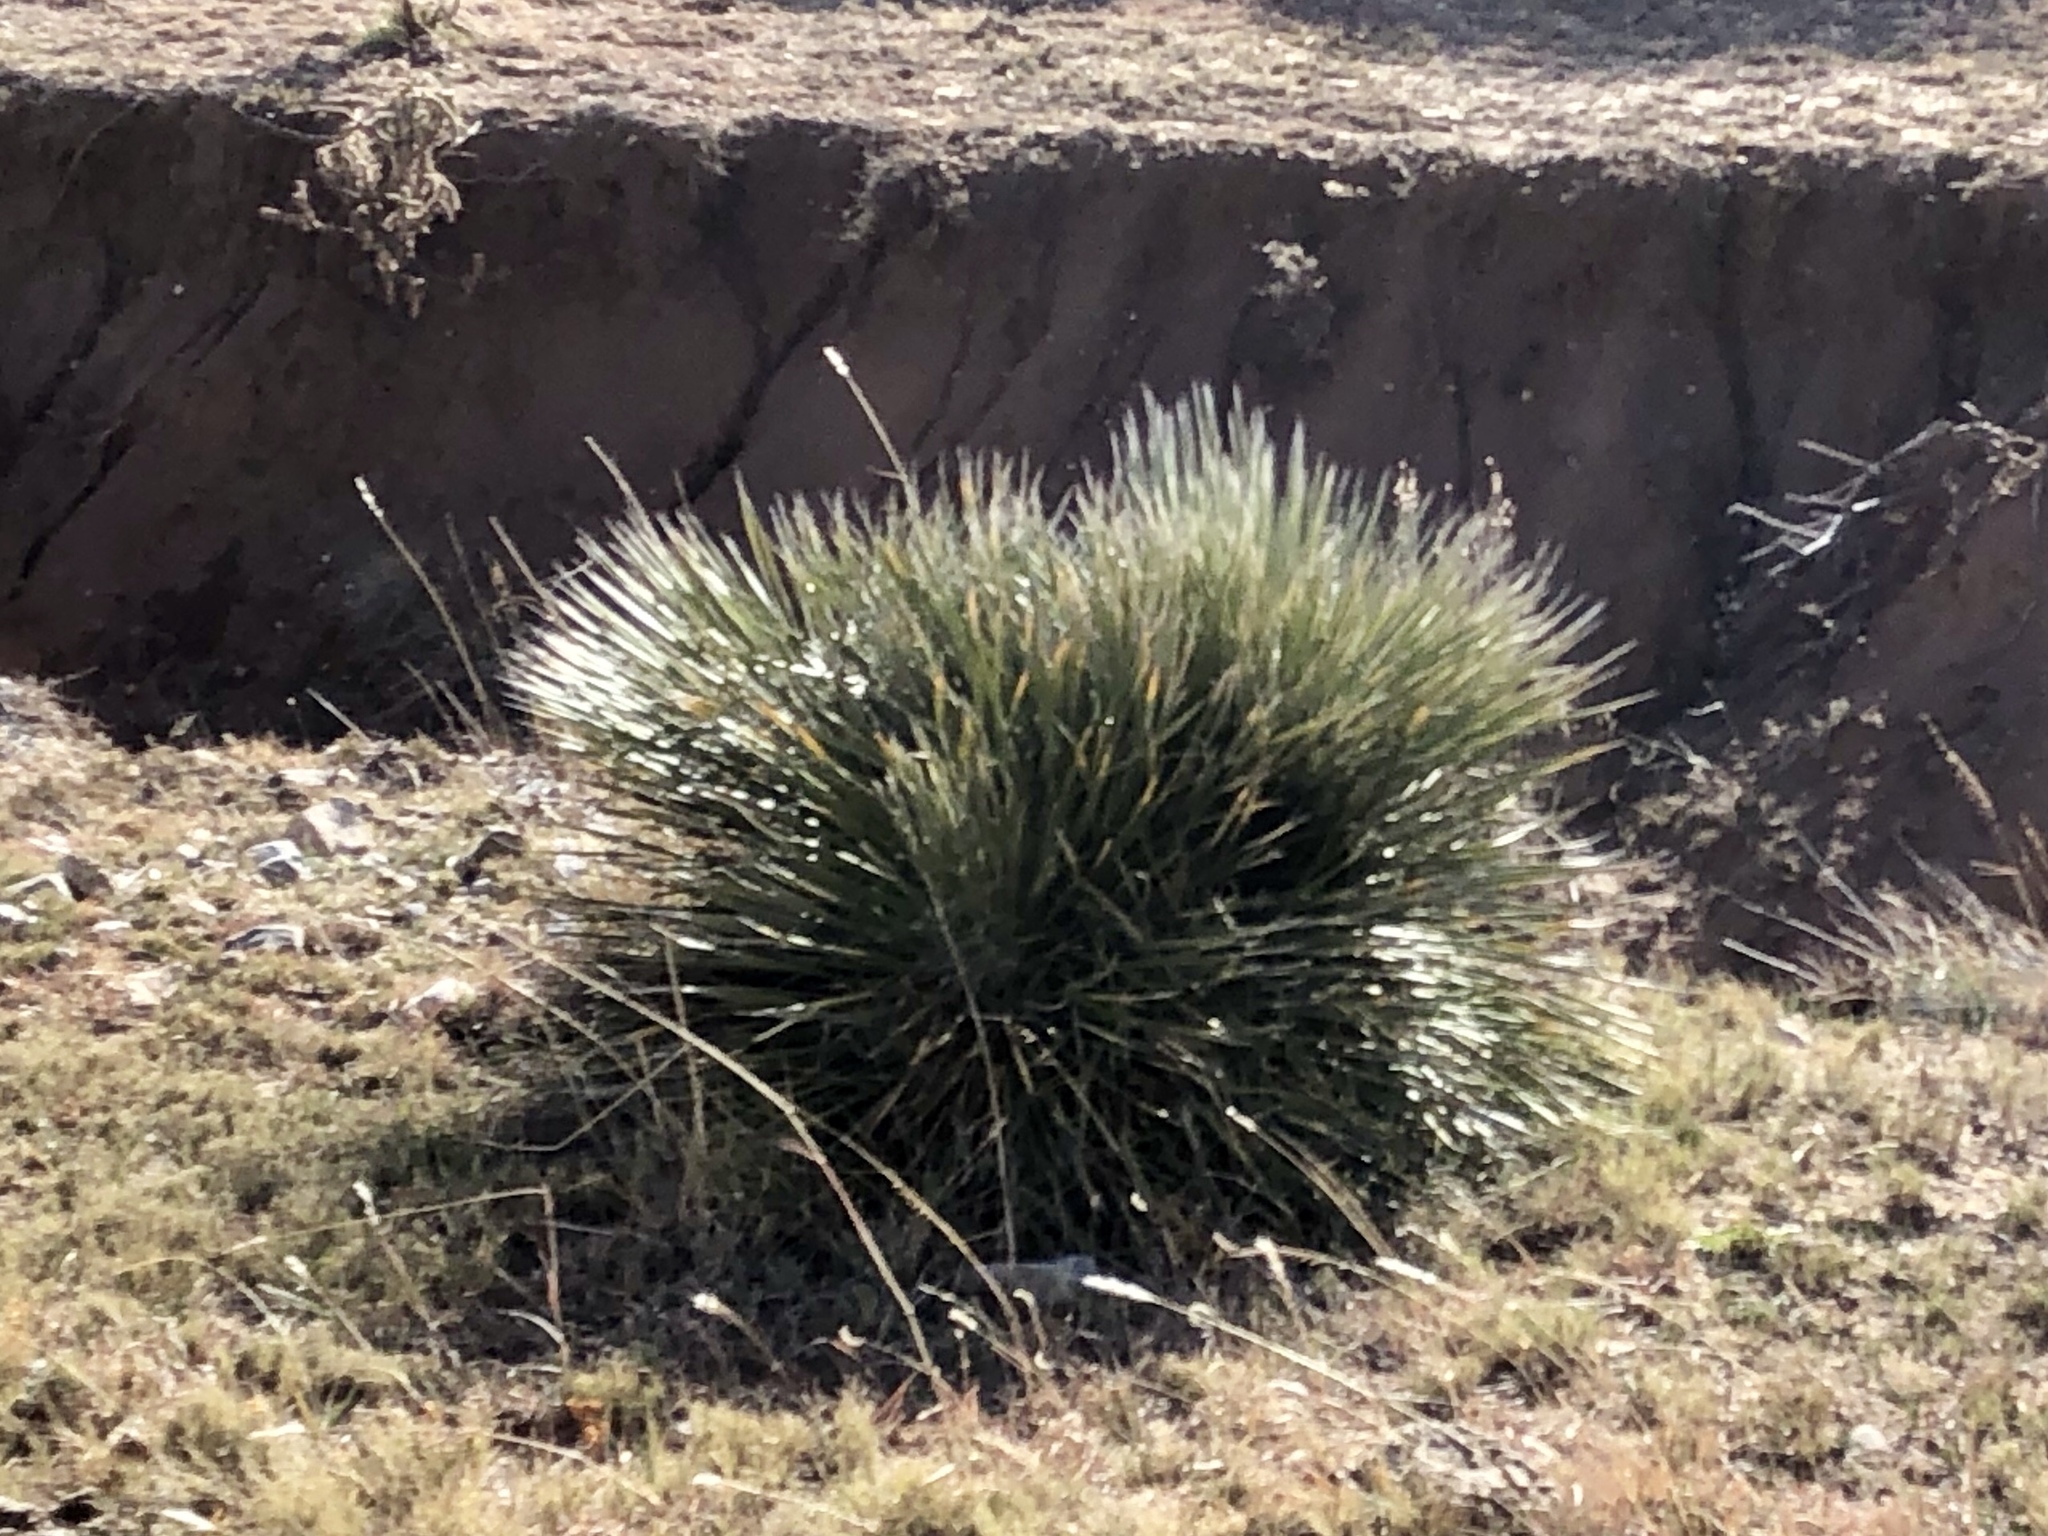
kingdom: Plantae
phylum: Tracheophyta
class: Liliopsida
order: Asparagales
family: Asparagaceae
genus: Yucca
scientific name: Yucca elata
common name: Palmella
